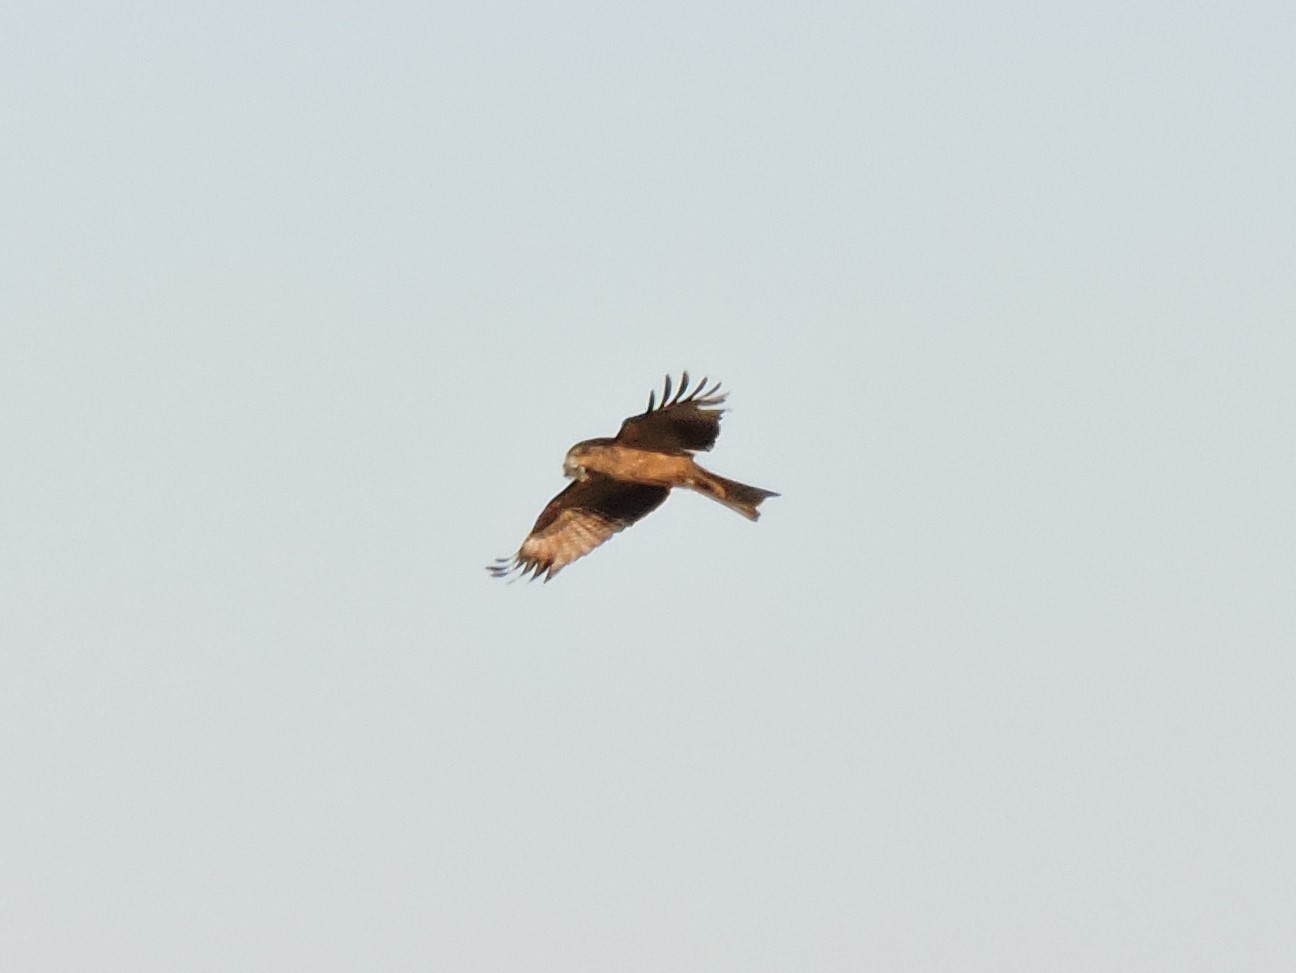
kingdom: Animalia
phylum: Chordata
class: Aves
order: Accipitriformes
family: Accipitridae
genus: Milvus
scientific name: Milvus migrans
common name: Black kite
